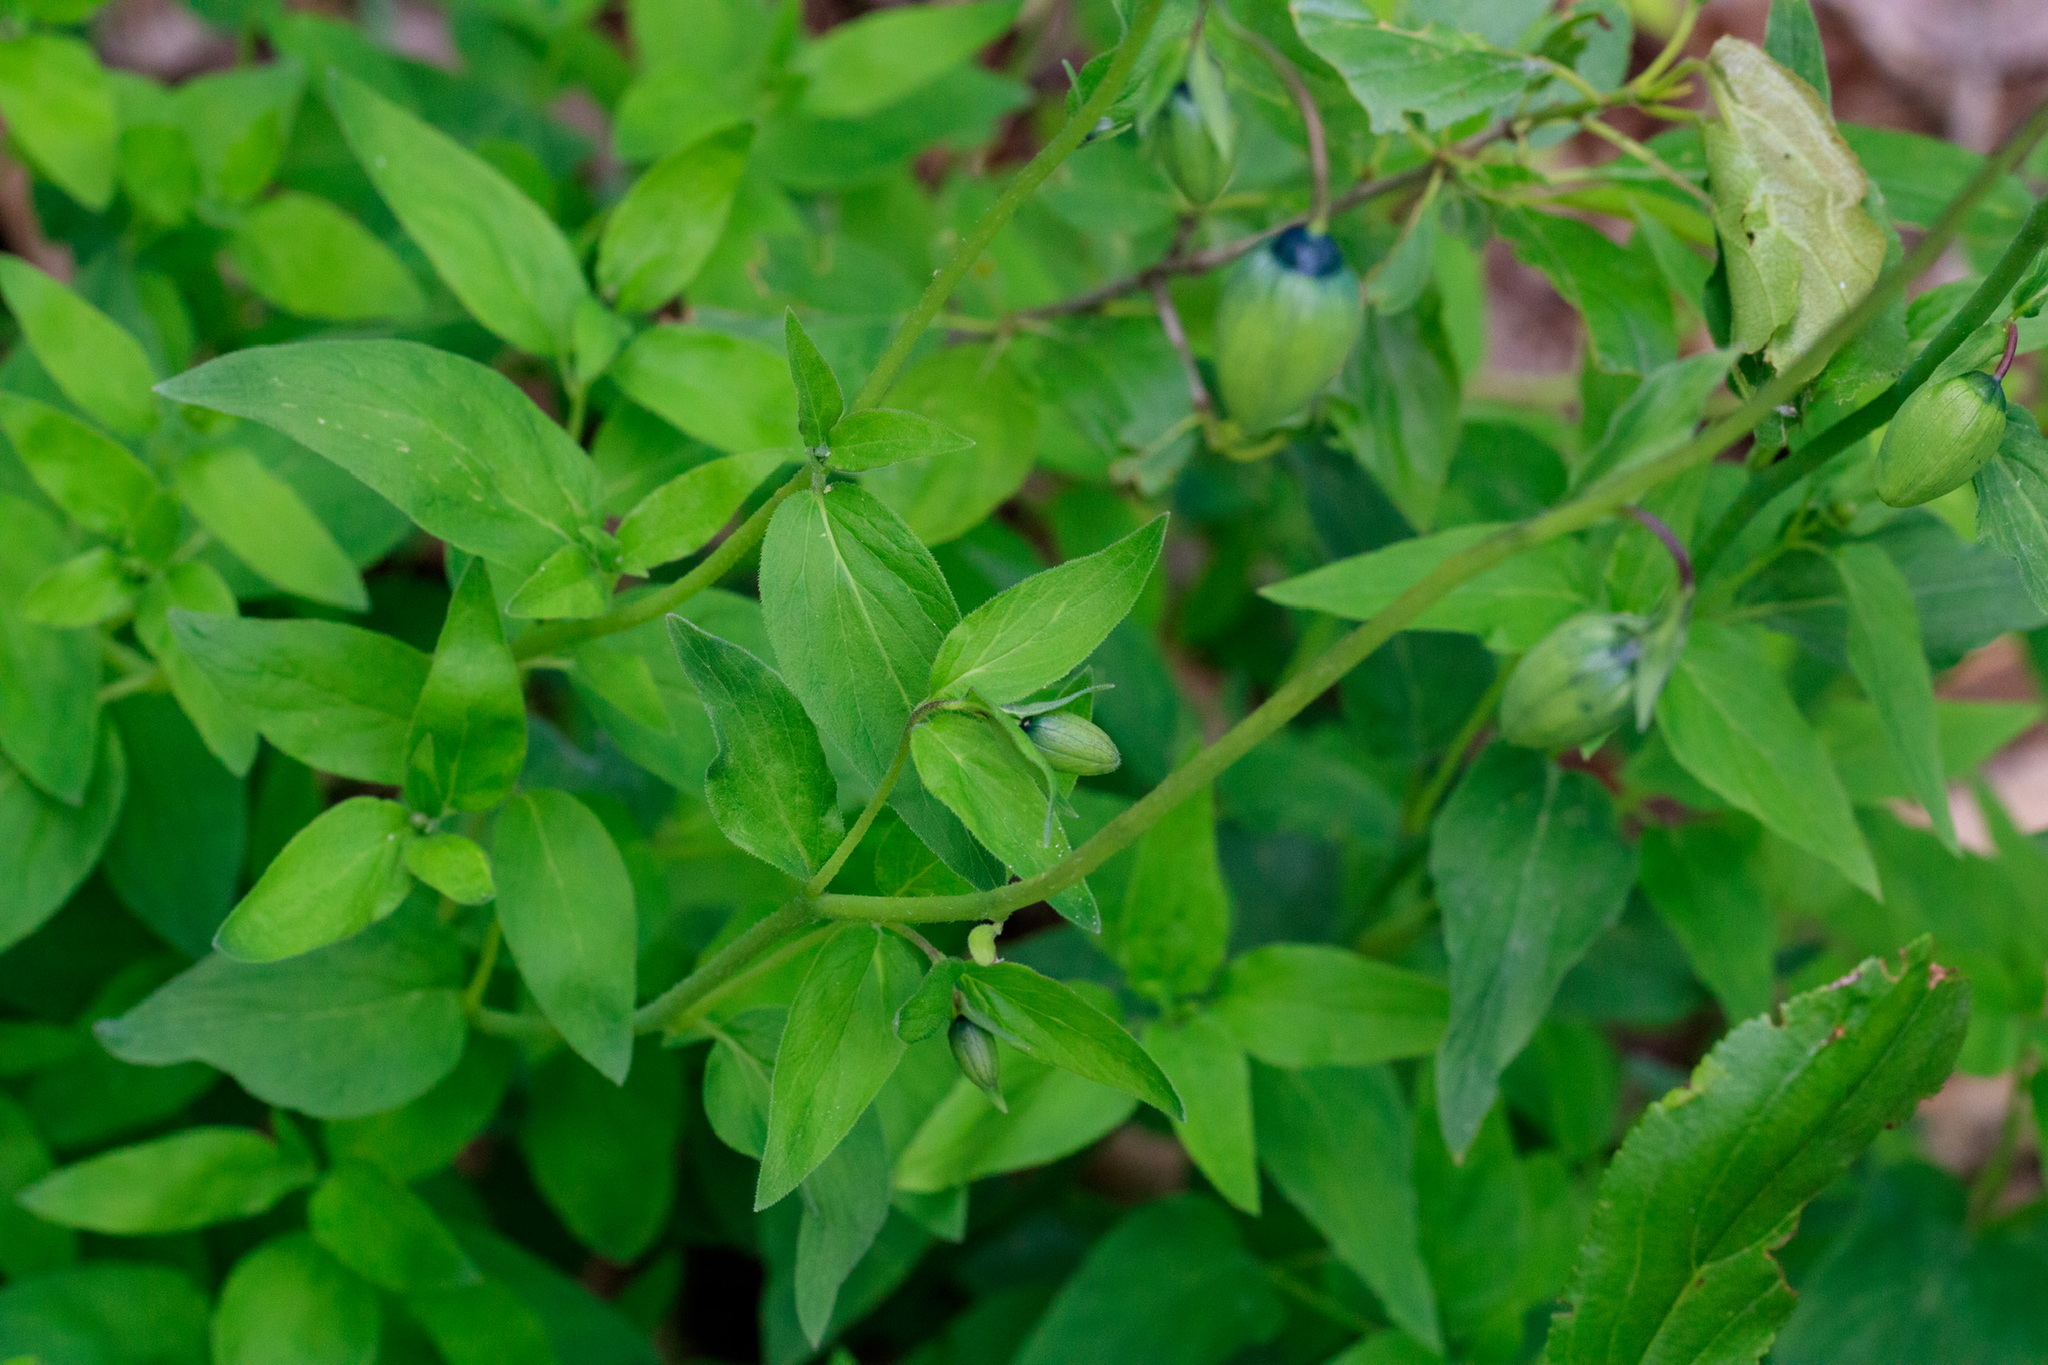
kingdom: Plantae
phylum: Tracheophyta
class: Magnoliopsida
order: Asterales
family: Campanulaceae
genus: Codonopsis
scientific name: Codonopsis clematidea
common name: Bonnet-bellflower
